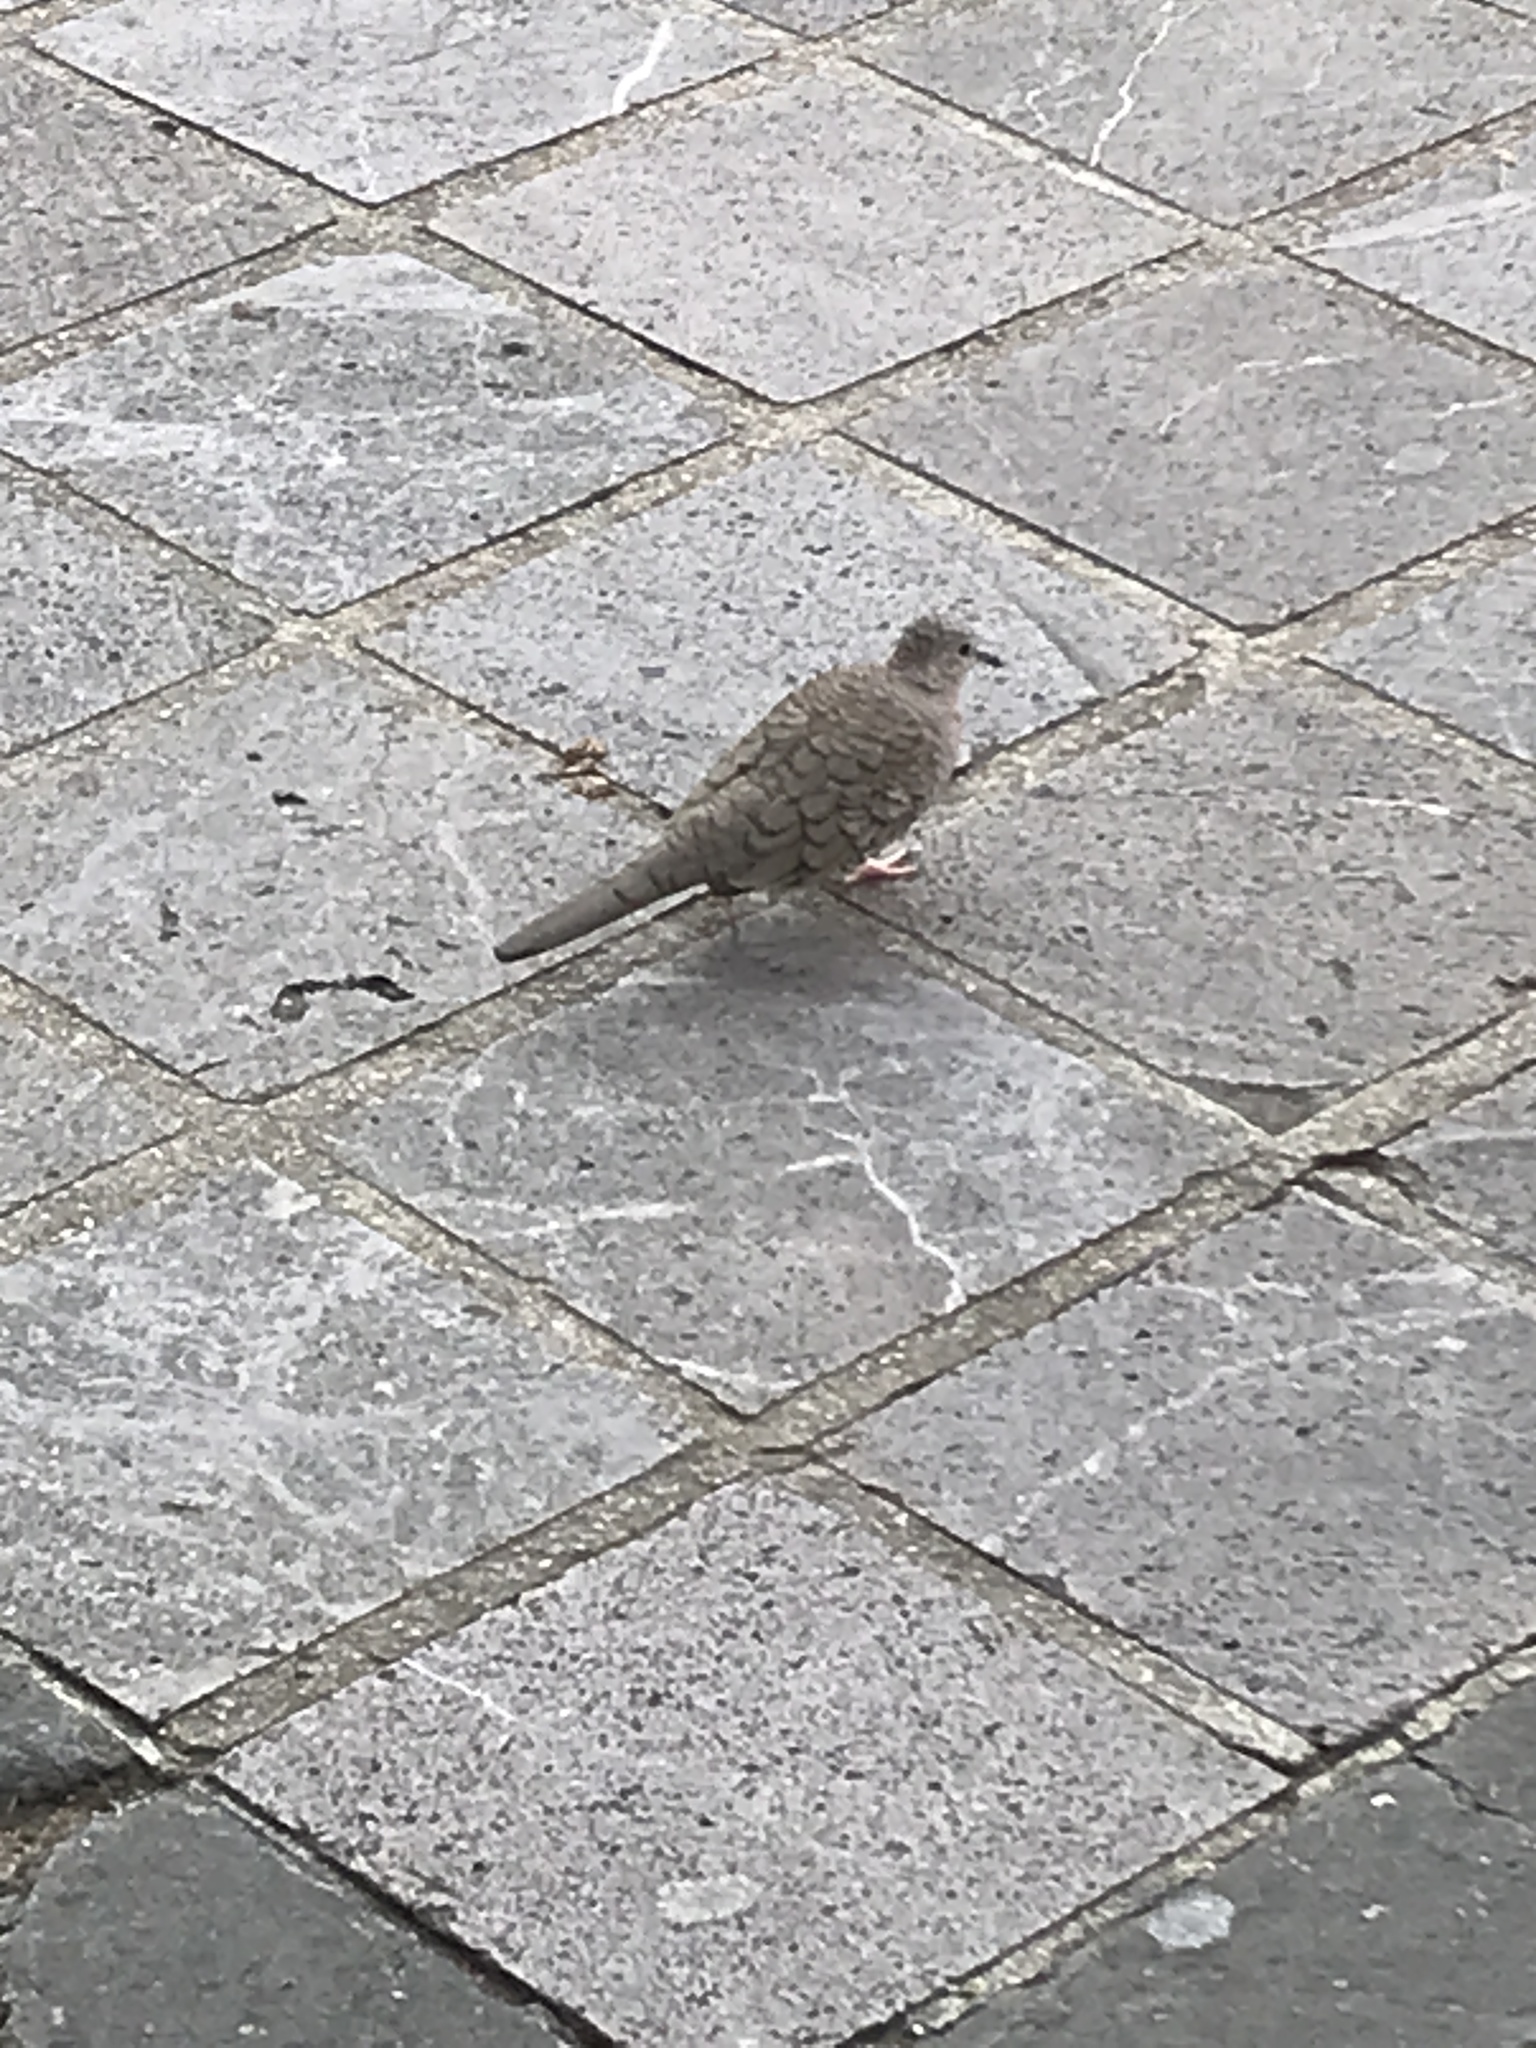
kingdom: Animalia
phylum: Chordata
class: Aves
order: Columbiformes
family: Columbidae
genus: Columbina
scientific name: Columbina inca
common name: Inca dove
